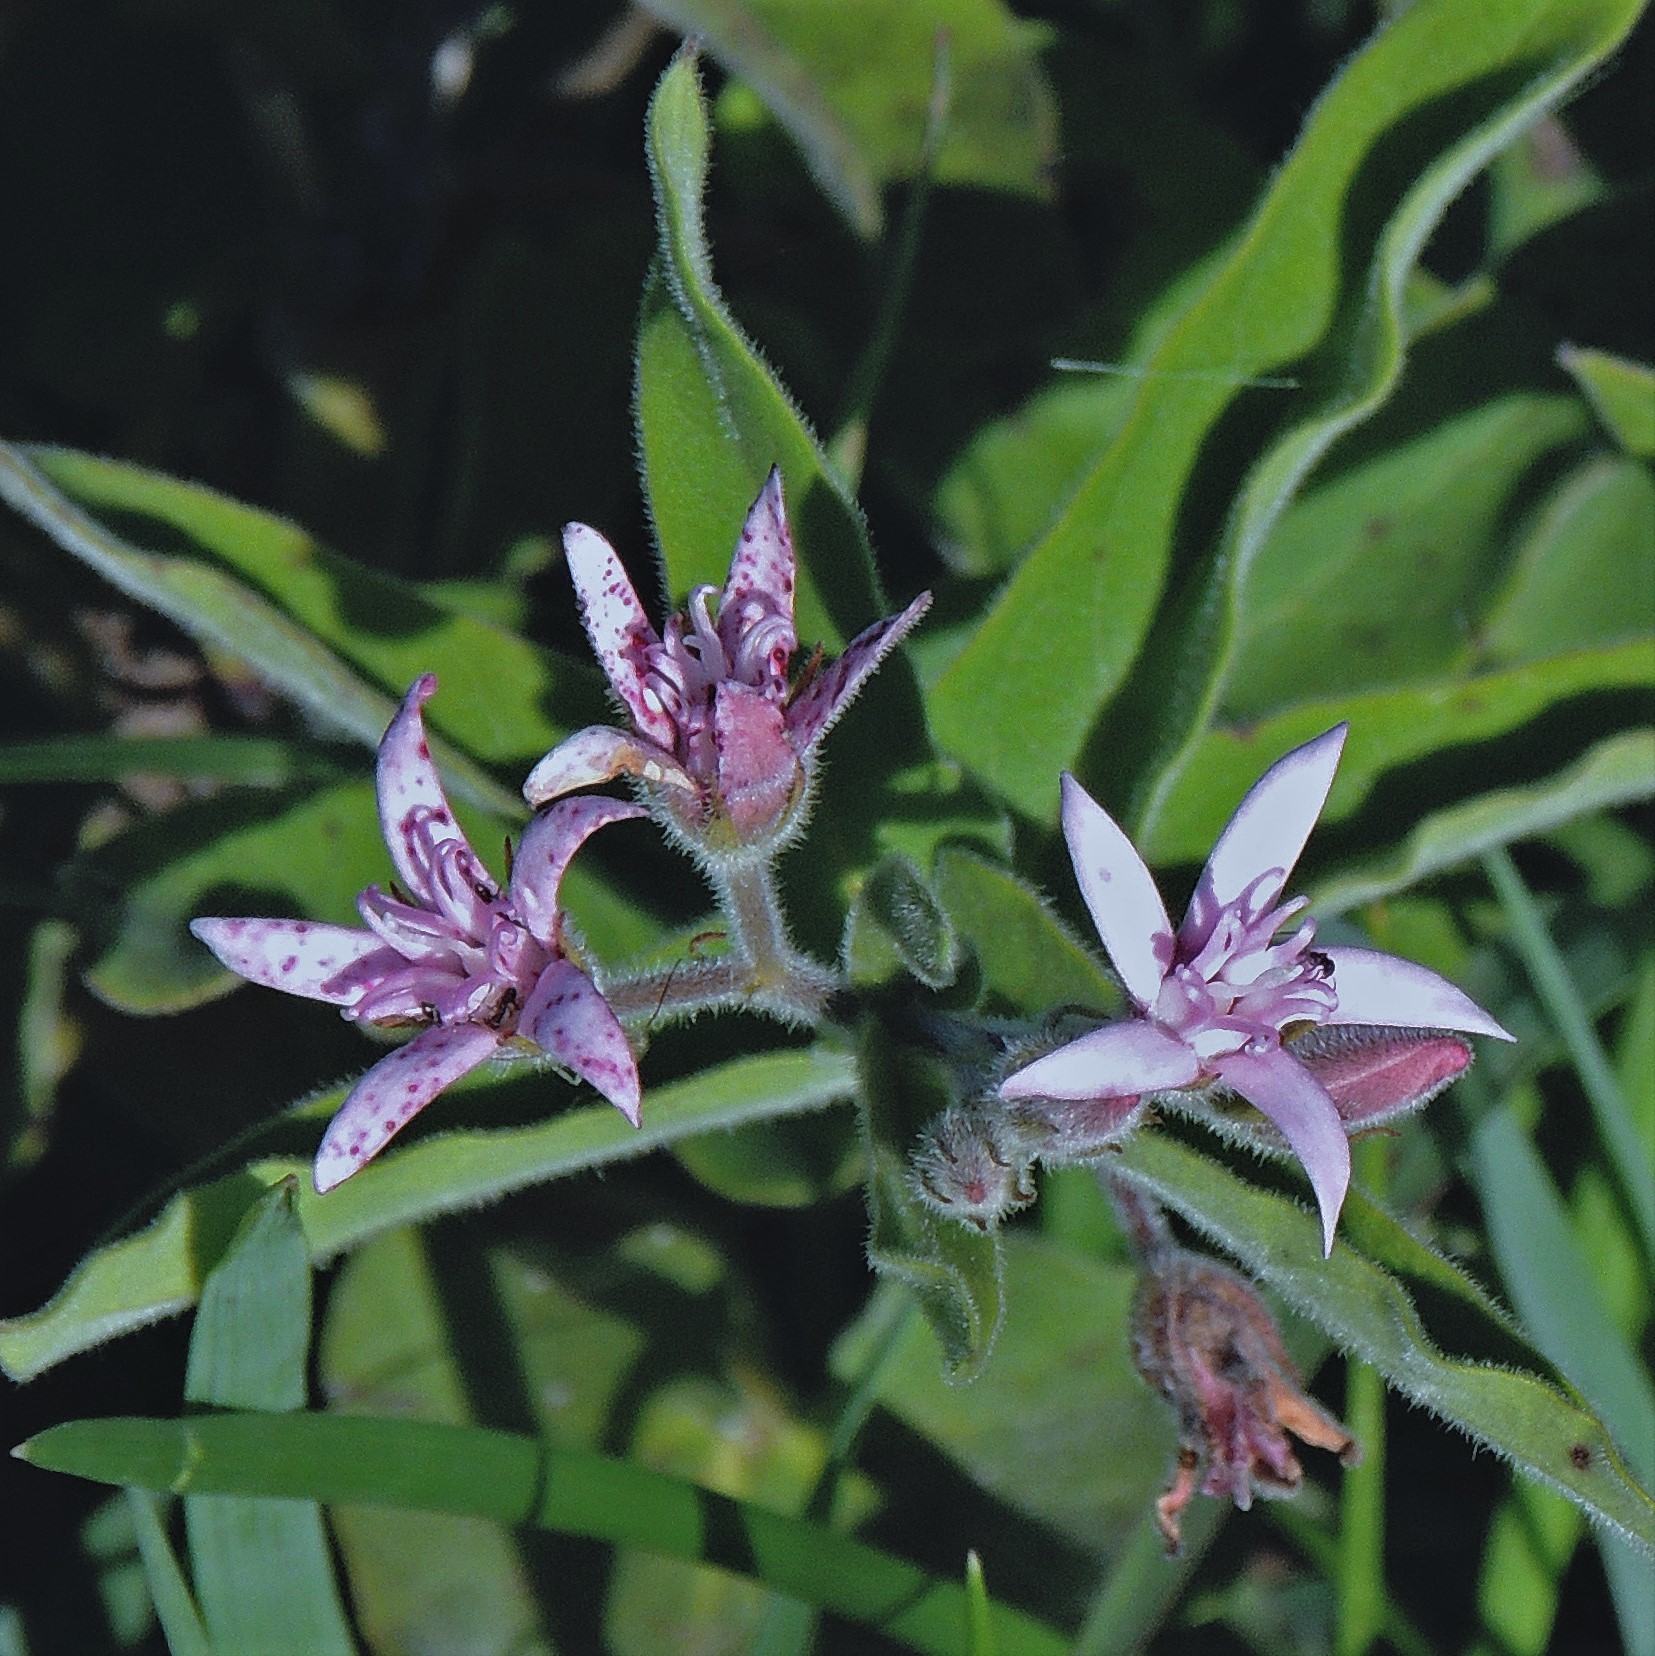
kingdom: Plantae
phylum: Tracheophyta
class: Magnoliopsida
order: Gentianales
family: Apocynaceae
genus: Oxypetalum
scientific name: Oxypetalum solanoides
